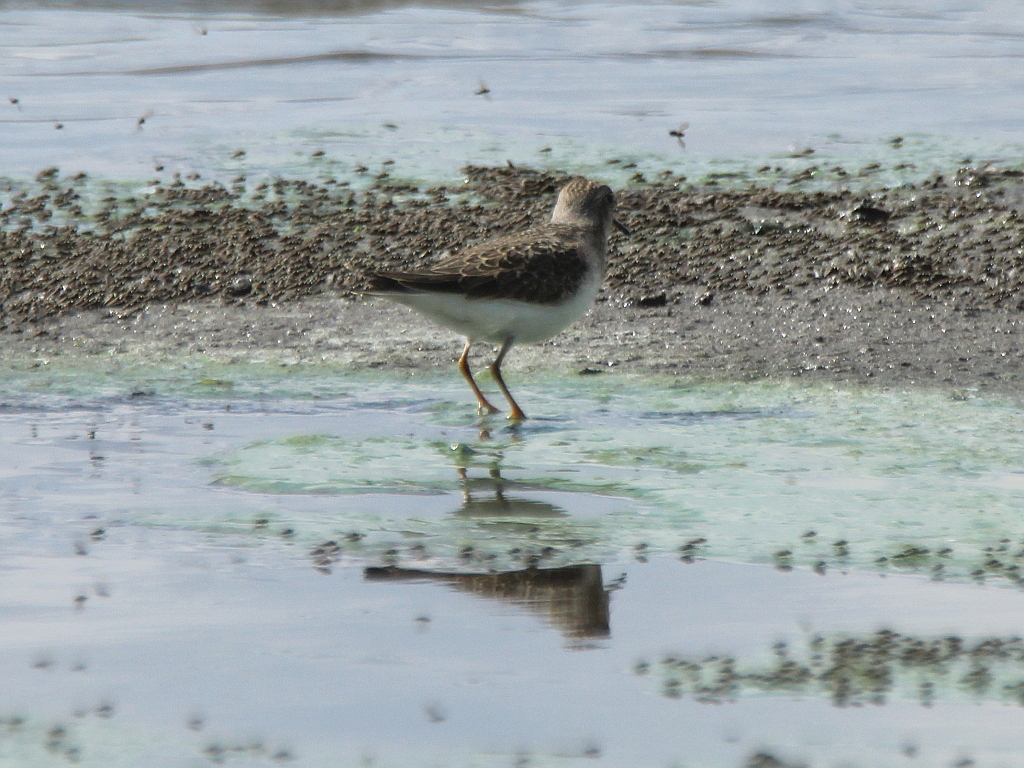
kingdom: Animalia
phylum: Chordata
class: Aves
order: Charadriiformes
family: Scolopacidae
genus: Calidris
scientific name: Calidris temminckii
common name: Temminck's stint
